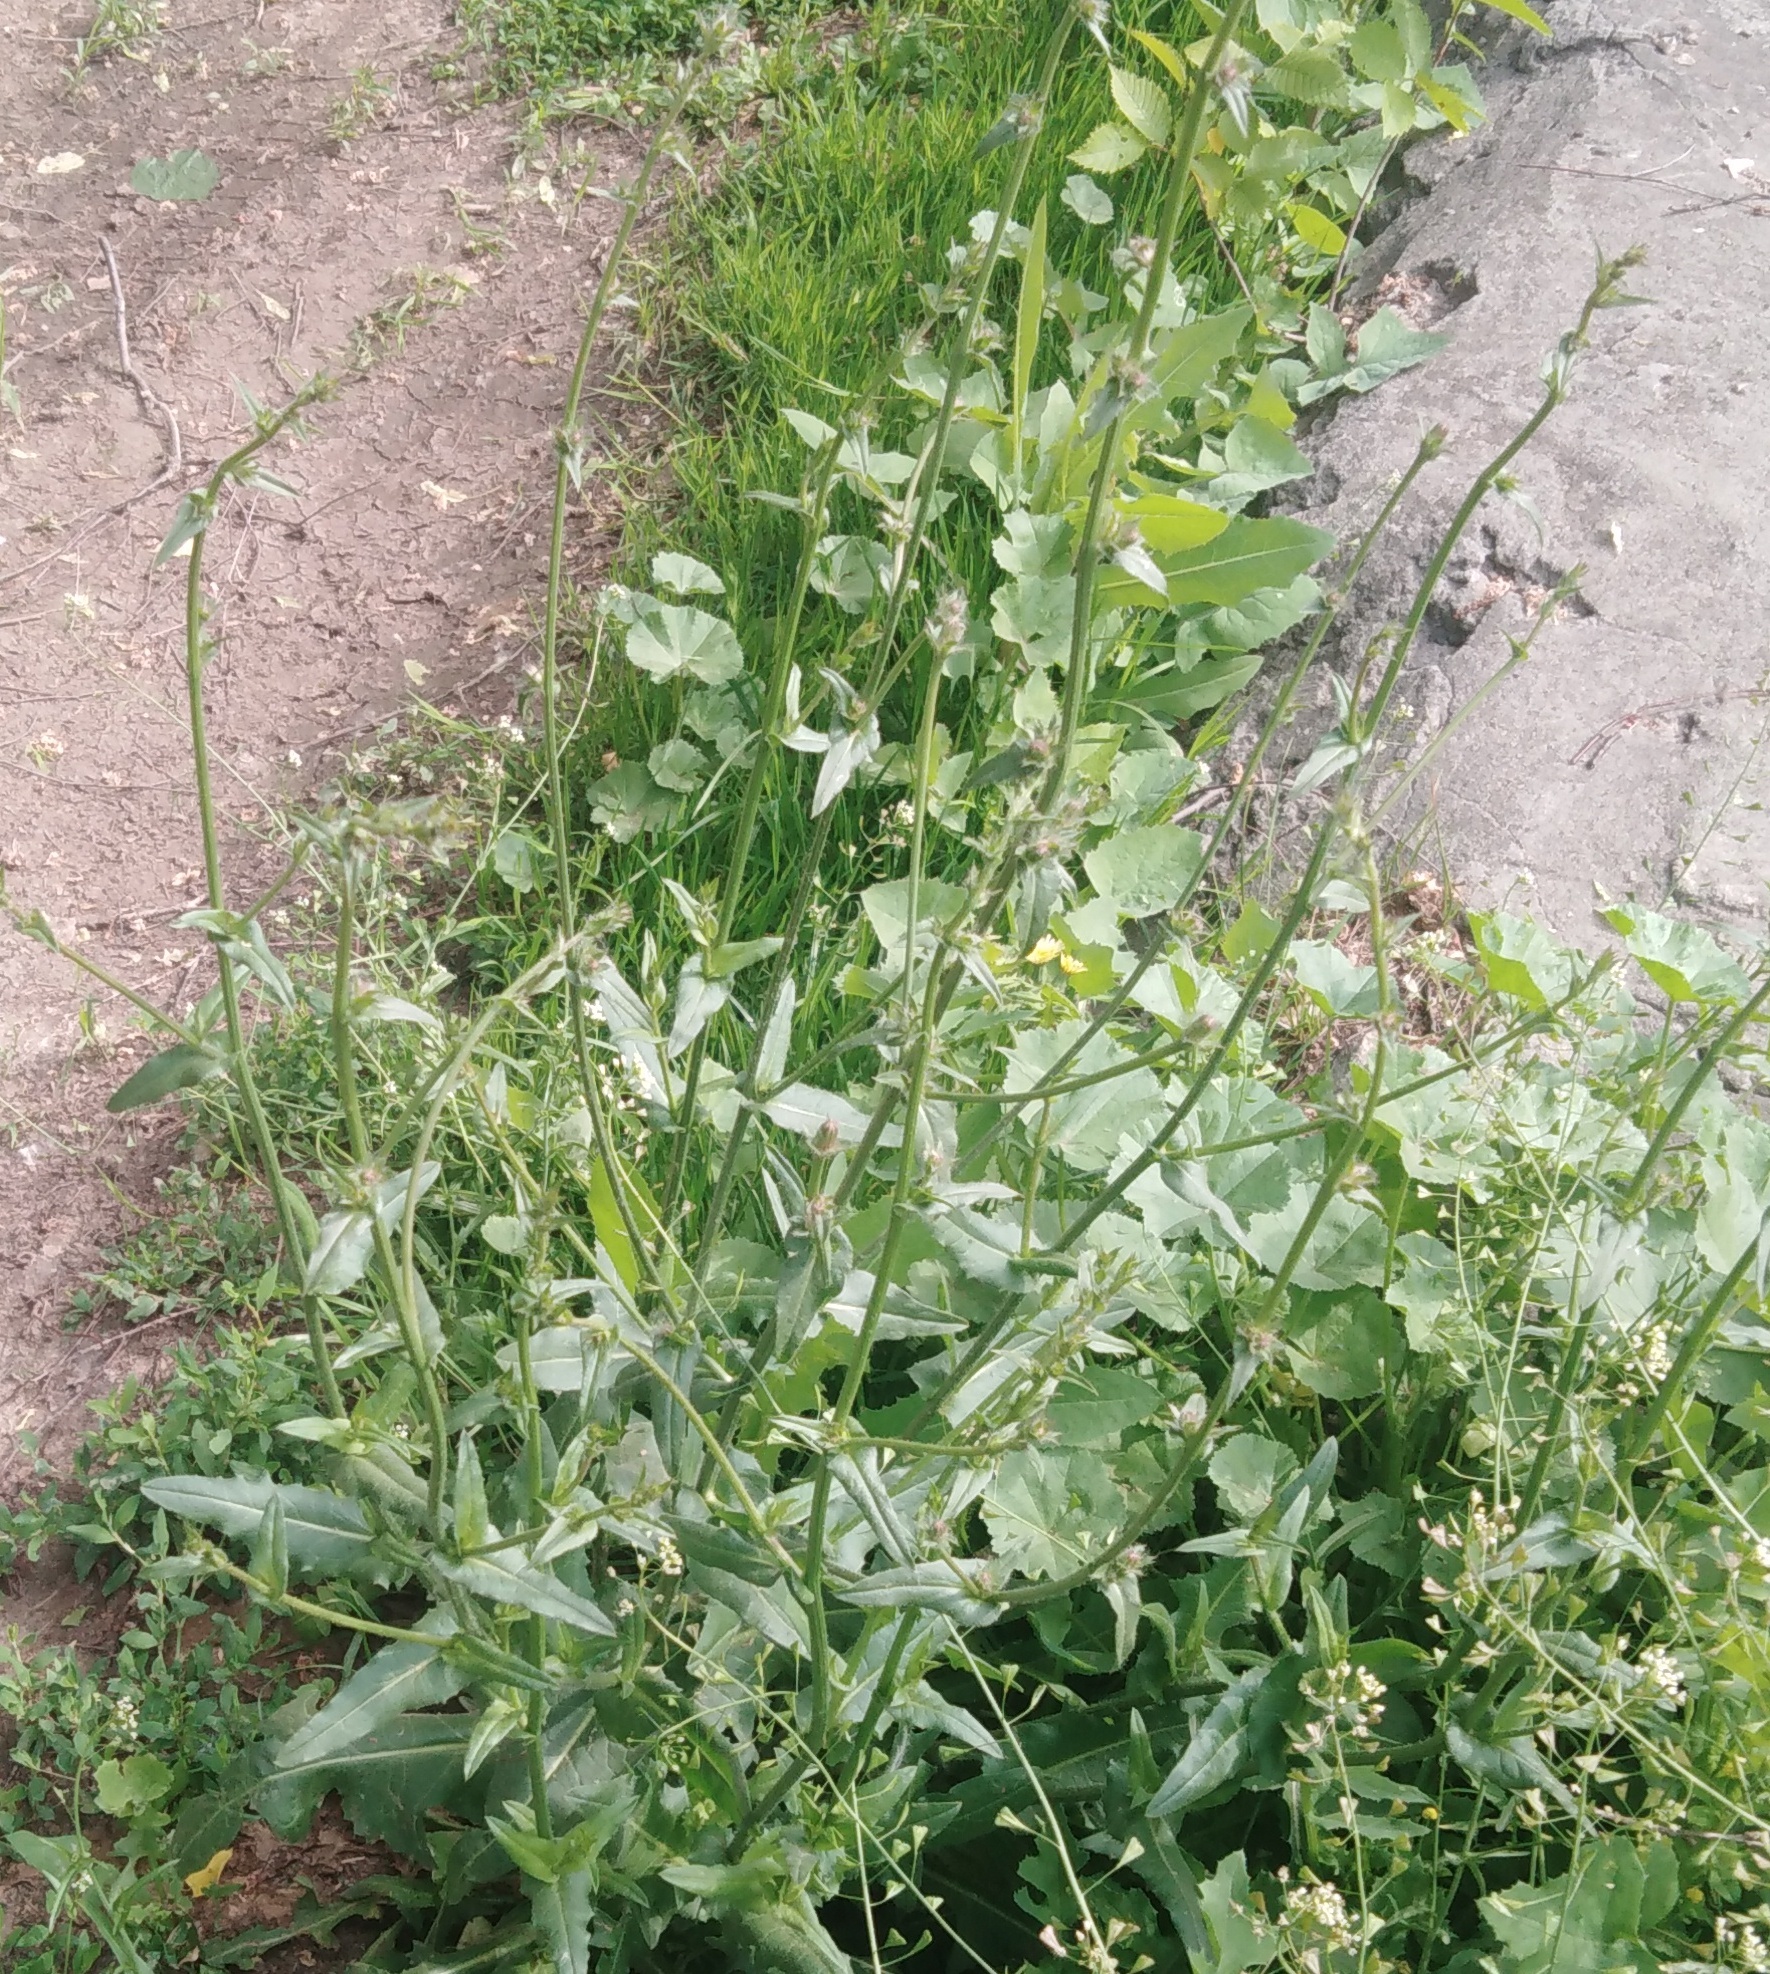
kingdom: Plantae
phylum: Tracheophyta
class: Magnoliopsida
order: Asterales
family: Asteraceae
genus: Cichorium
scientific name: Cichorium intybus
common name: Chicory
